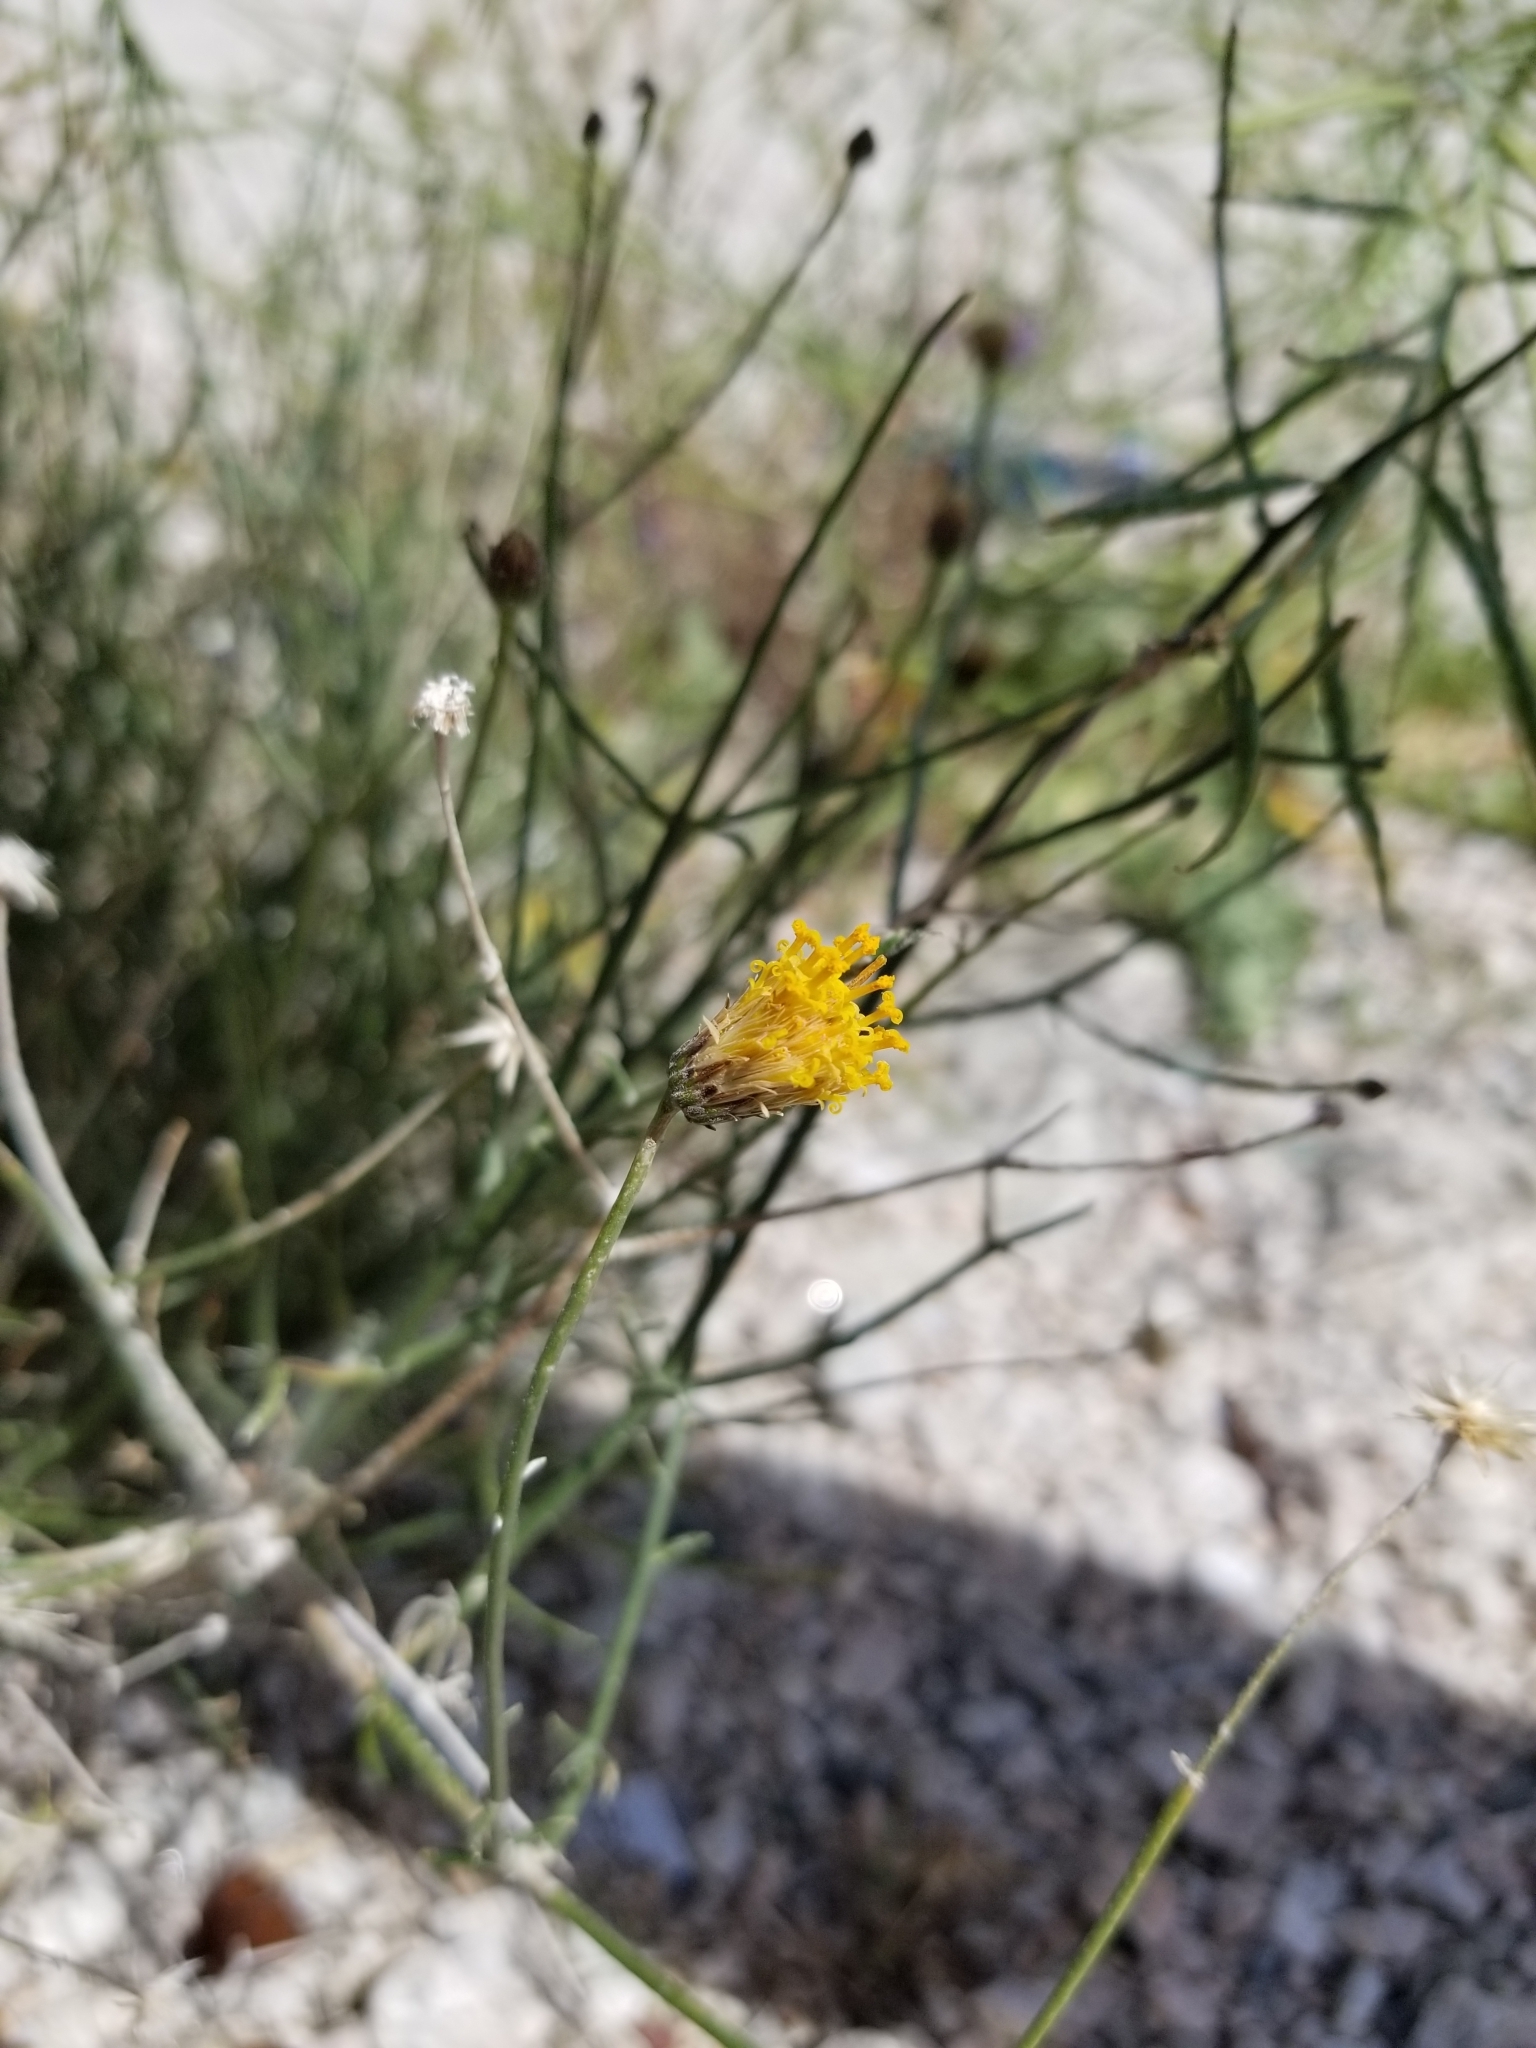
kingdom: Plantae
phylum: Tracheophyta
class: Magnoliopsida
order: Asterales
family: Asteraceae
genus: Bebbia
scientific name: Bebbia juncea
